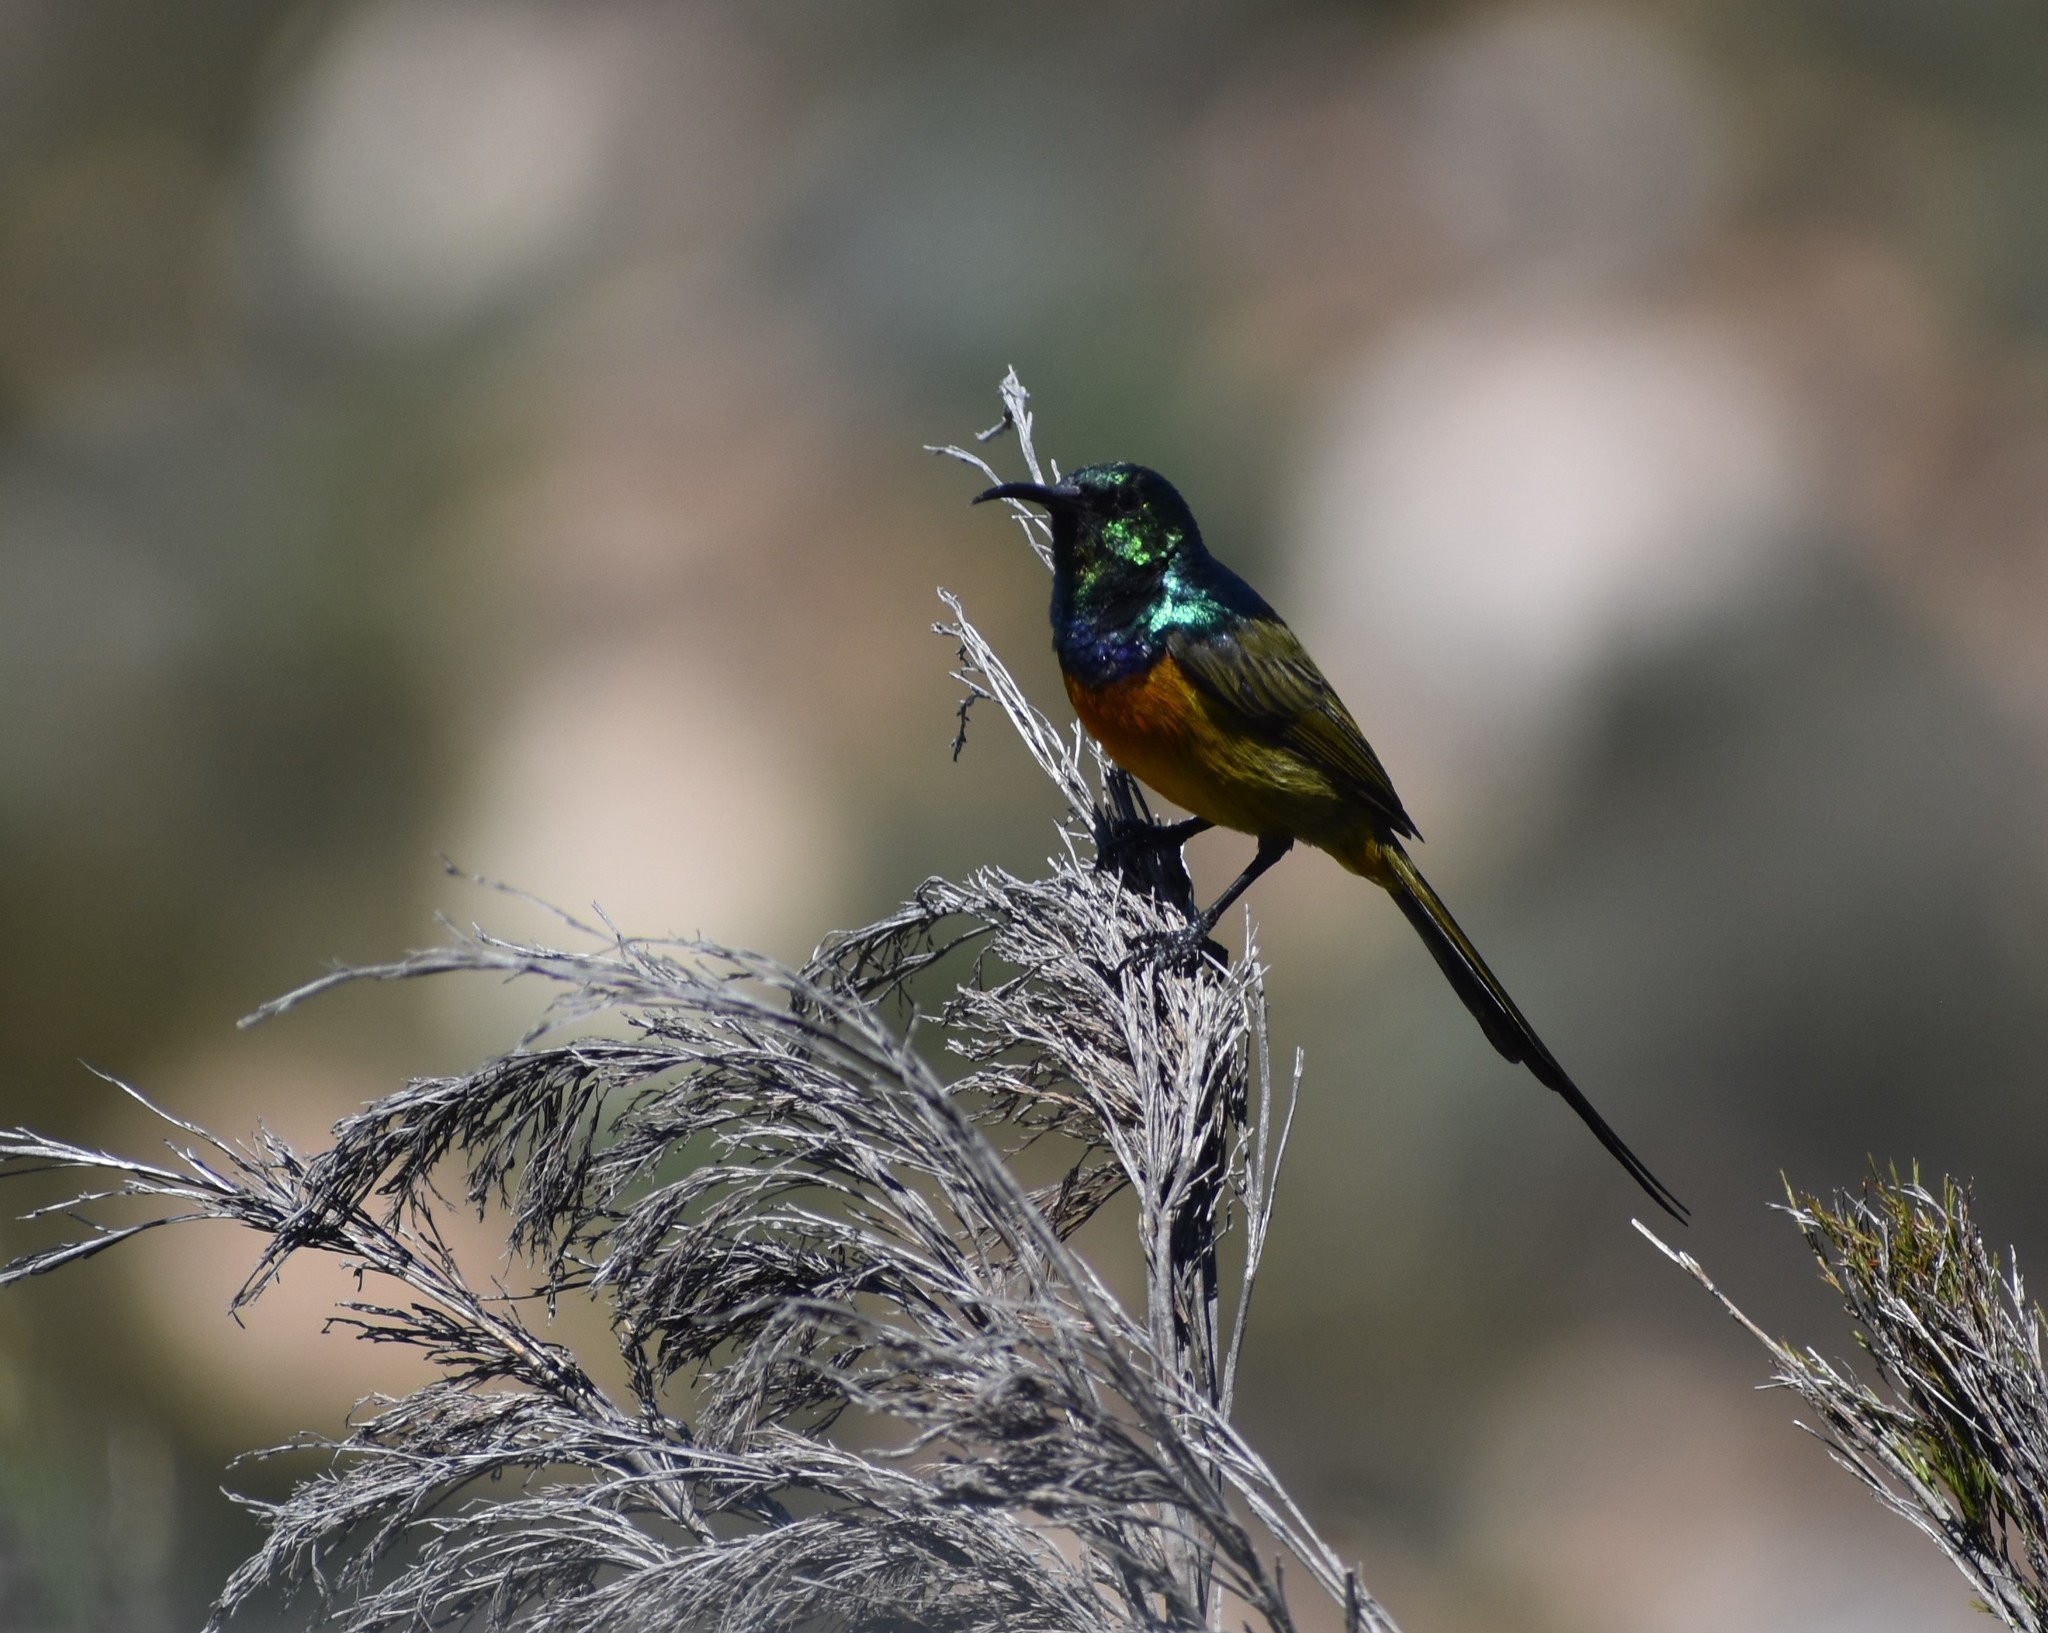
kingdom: Animalia
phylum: Chordata
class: Aves
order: Passeriformes
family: Nectariniidae
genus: Anthobaphes
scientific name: Anthobaphes violacea
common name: Orange-breasted sunbird
